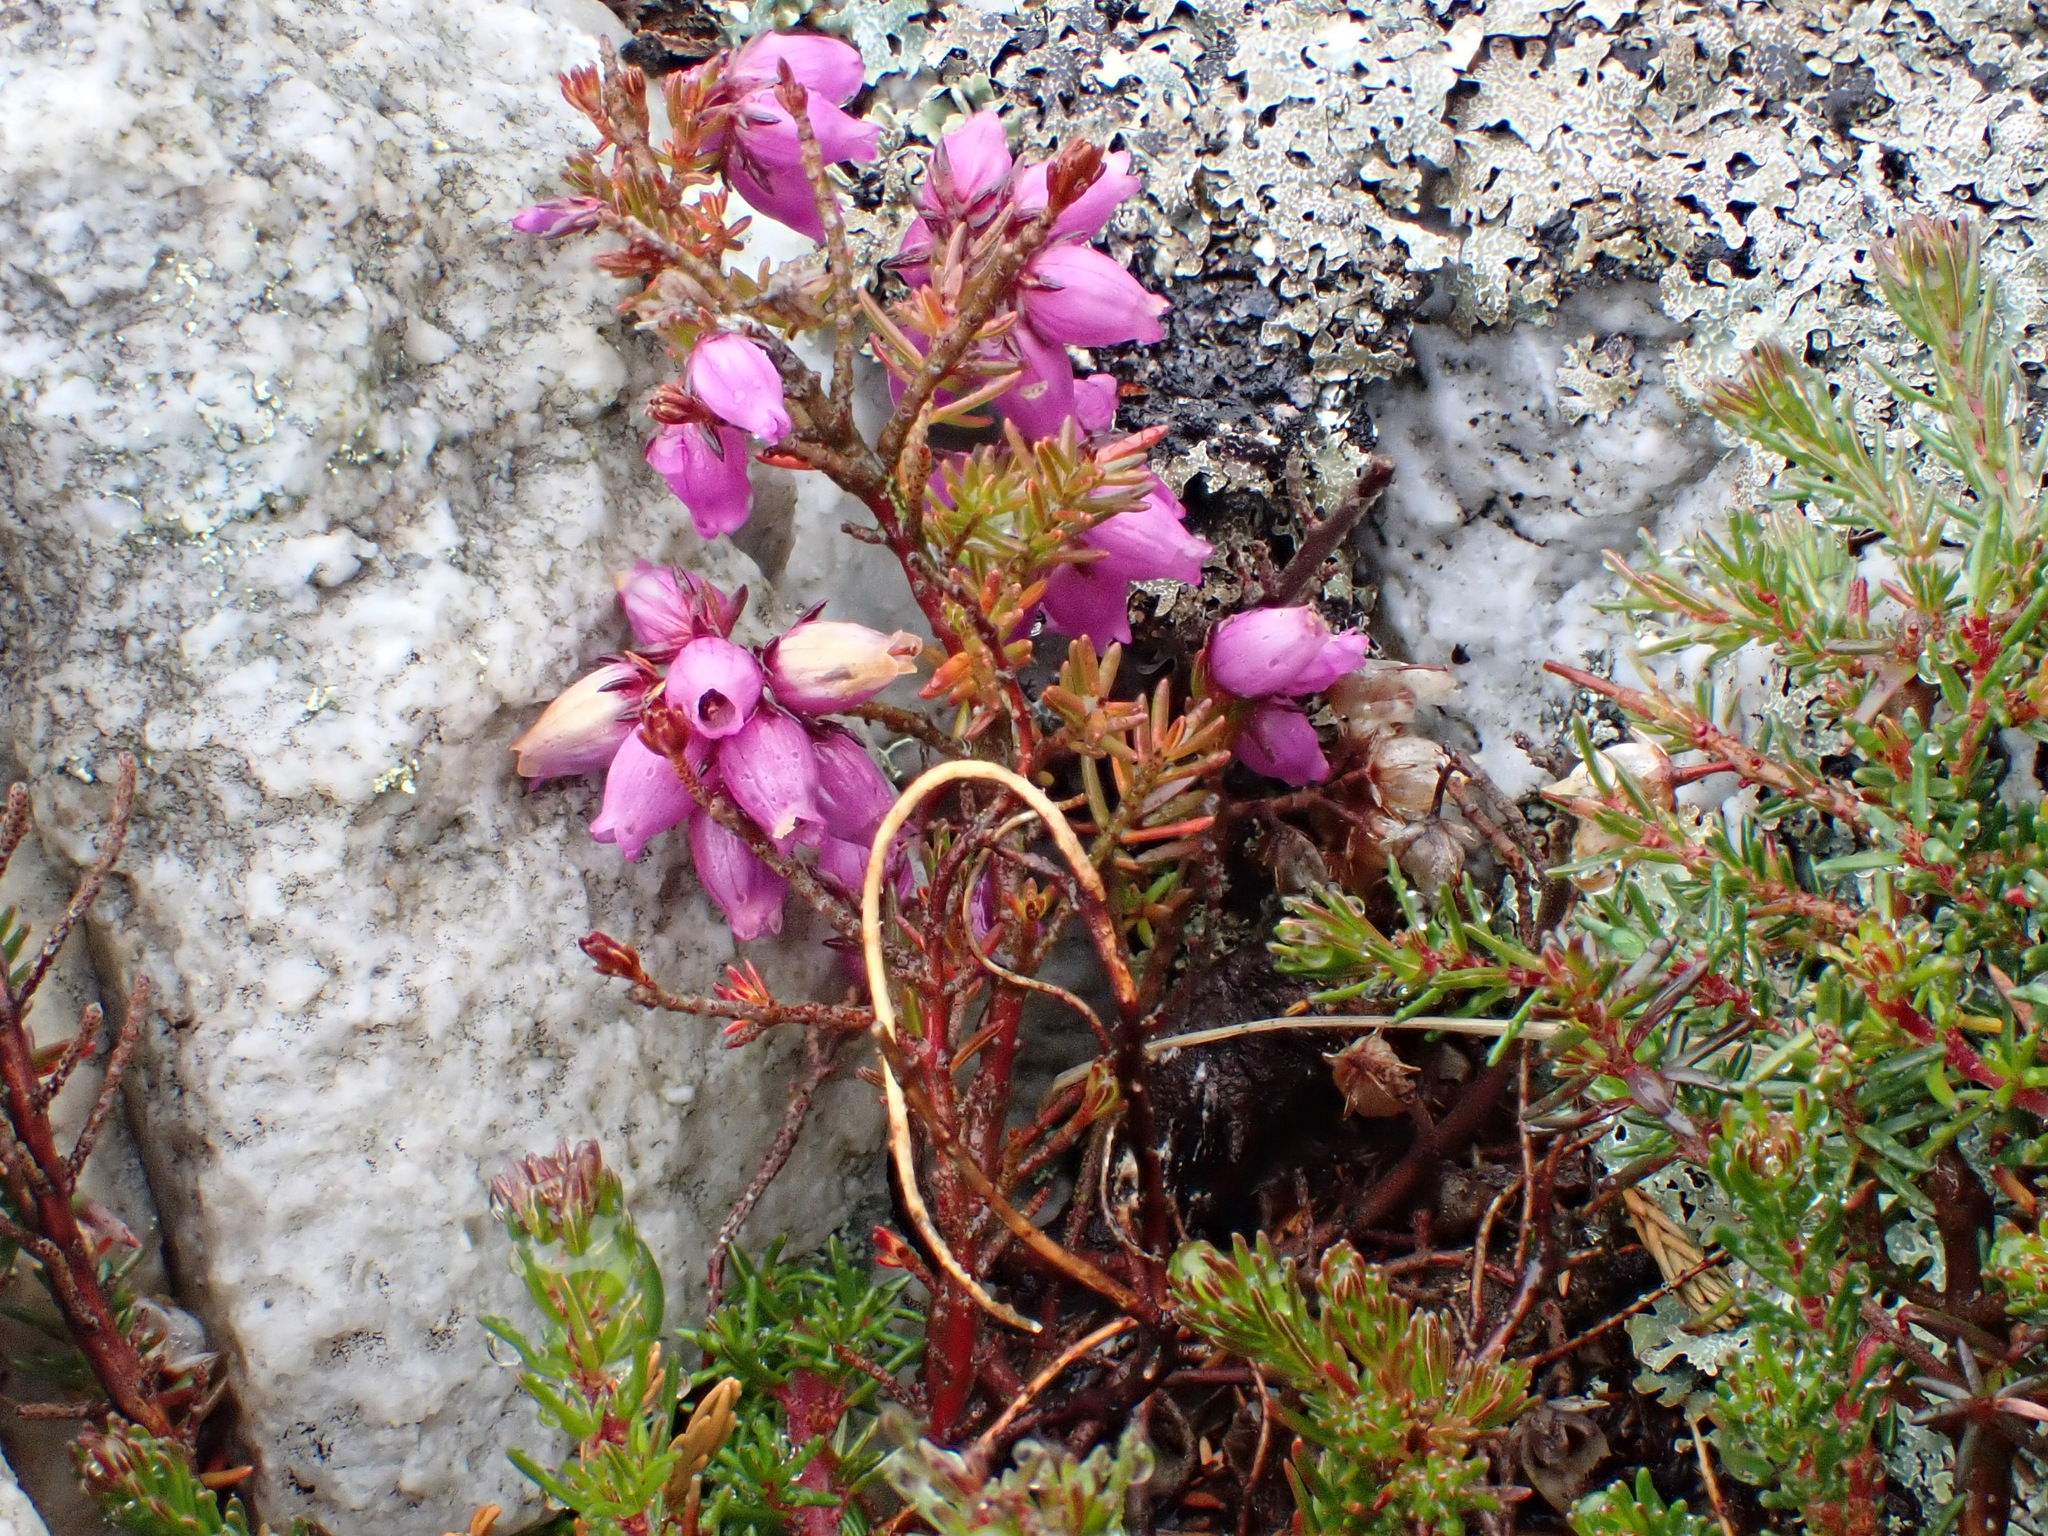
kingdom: Plantae
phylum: Tracheophyta
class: Magnoliopsida
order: Ericales
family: Ericaceae
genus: Erica
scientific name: Erica cinerea
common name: Bell heather
